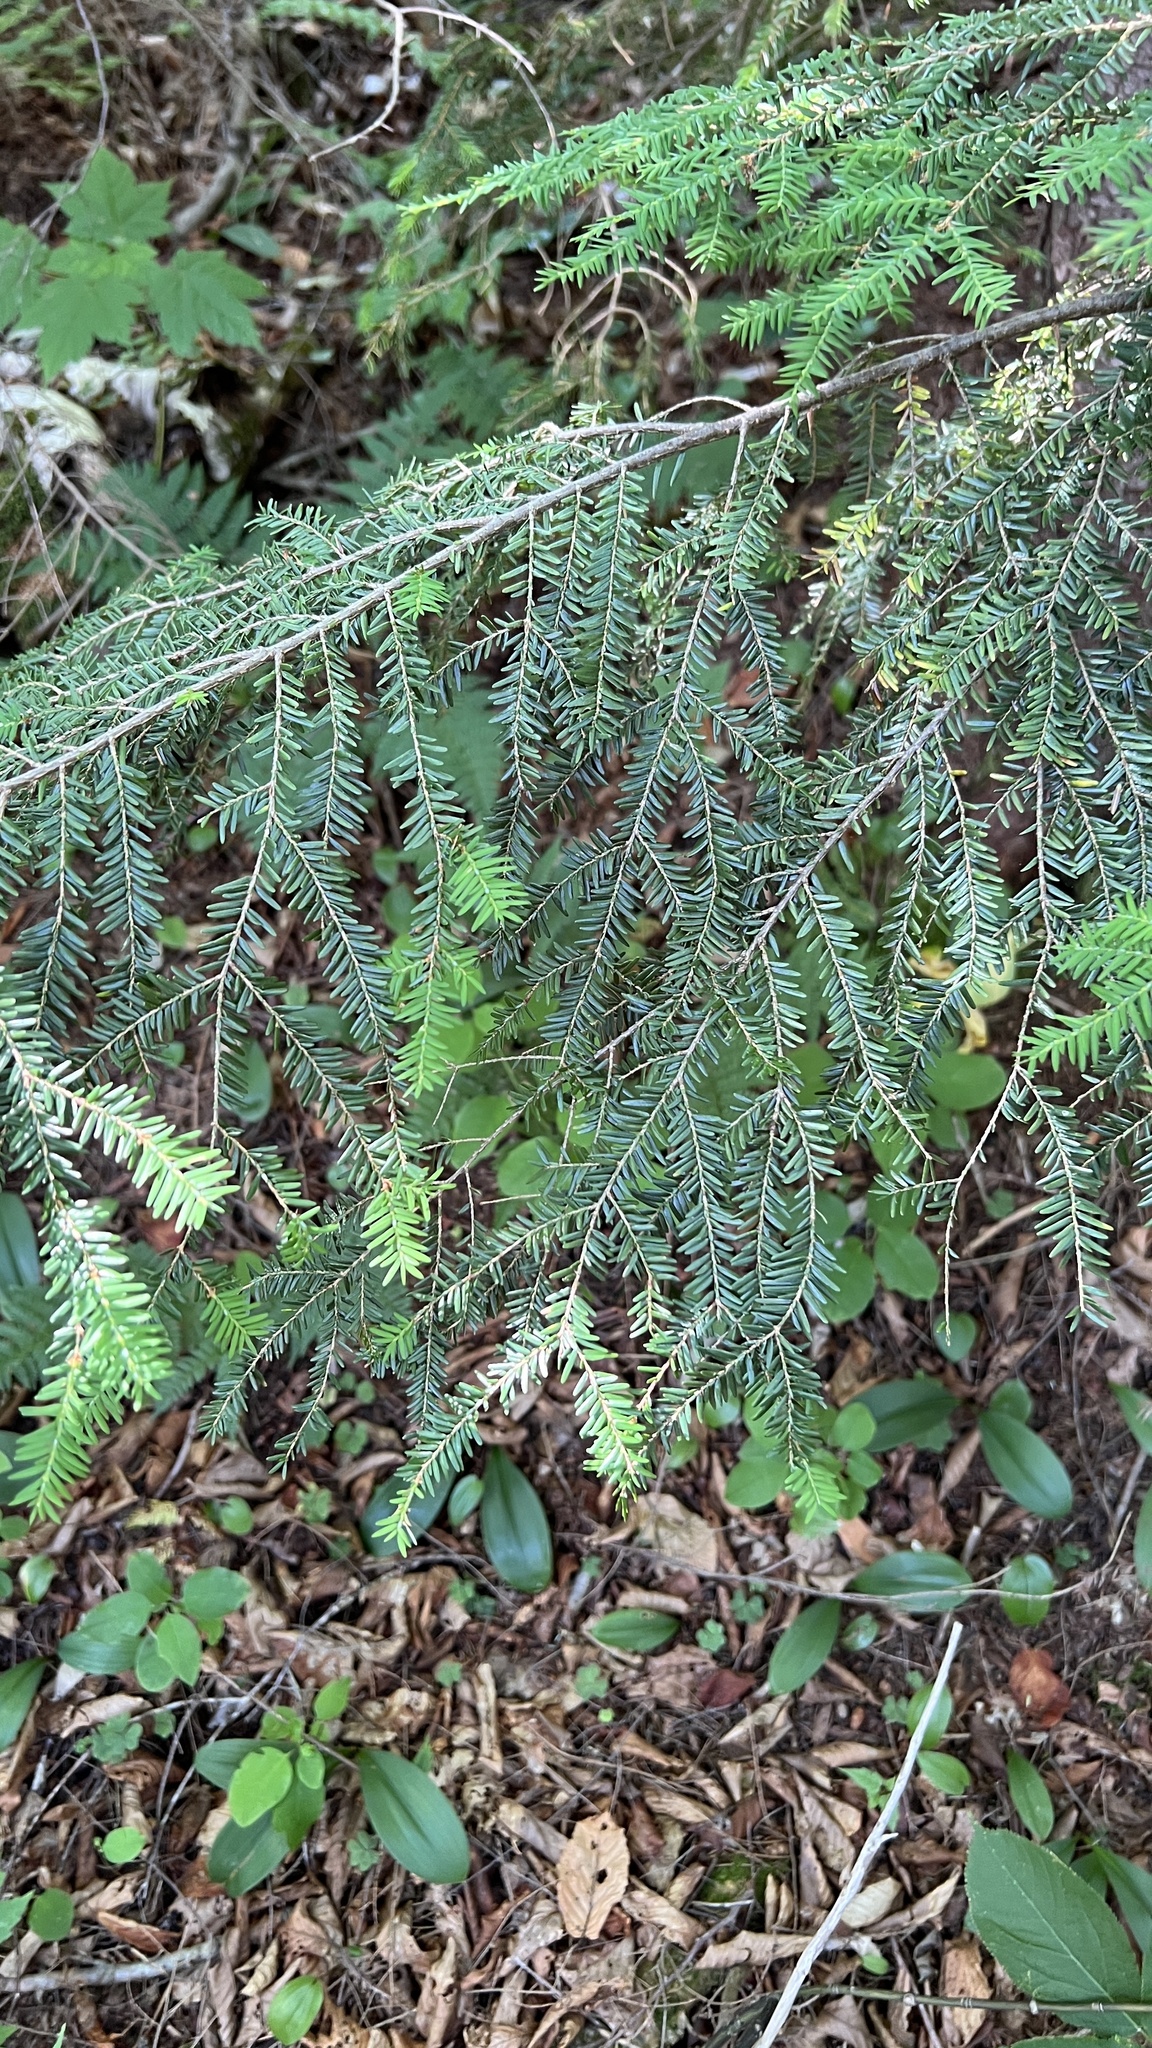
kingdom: Plantae
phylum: Tracheophyta
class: Pinopsida
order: Pinales
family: Pinaceae
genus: Tsuga
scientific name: Tsuga canadensis
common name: Eastern hemlock
